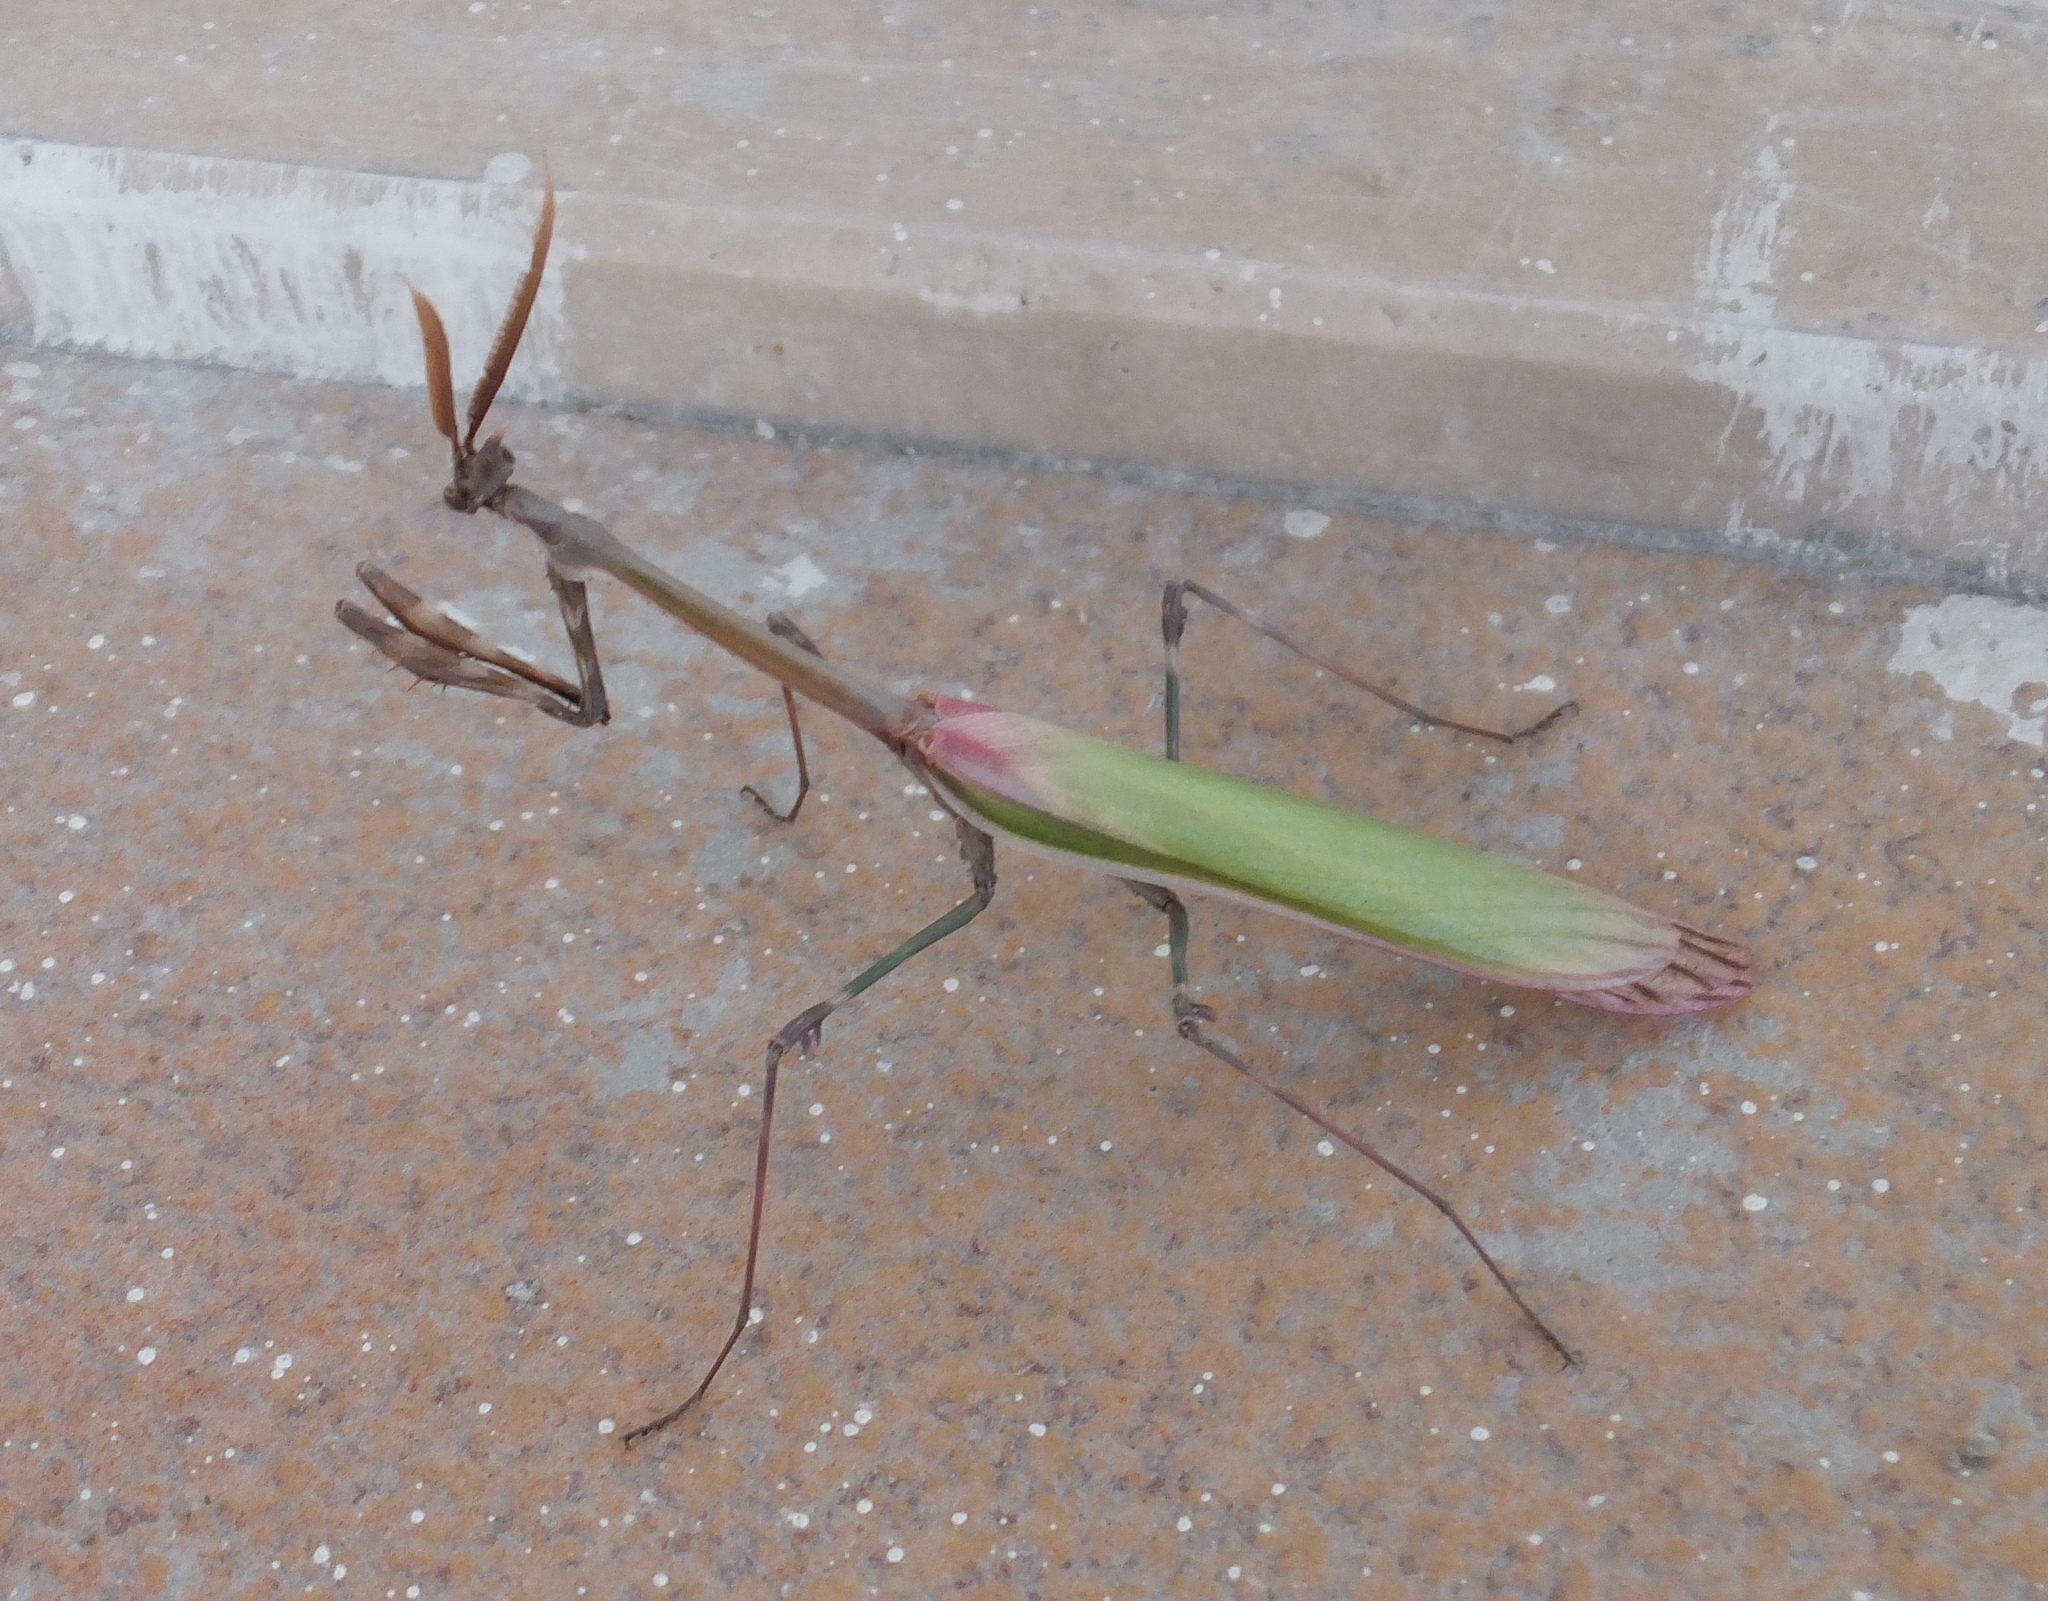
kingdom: Animalia
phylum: Arthropoda
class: Insecta
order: Mantodea
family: Empusidae
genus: Empusa
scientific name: Empusa pennata
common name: Conehead mantis
